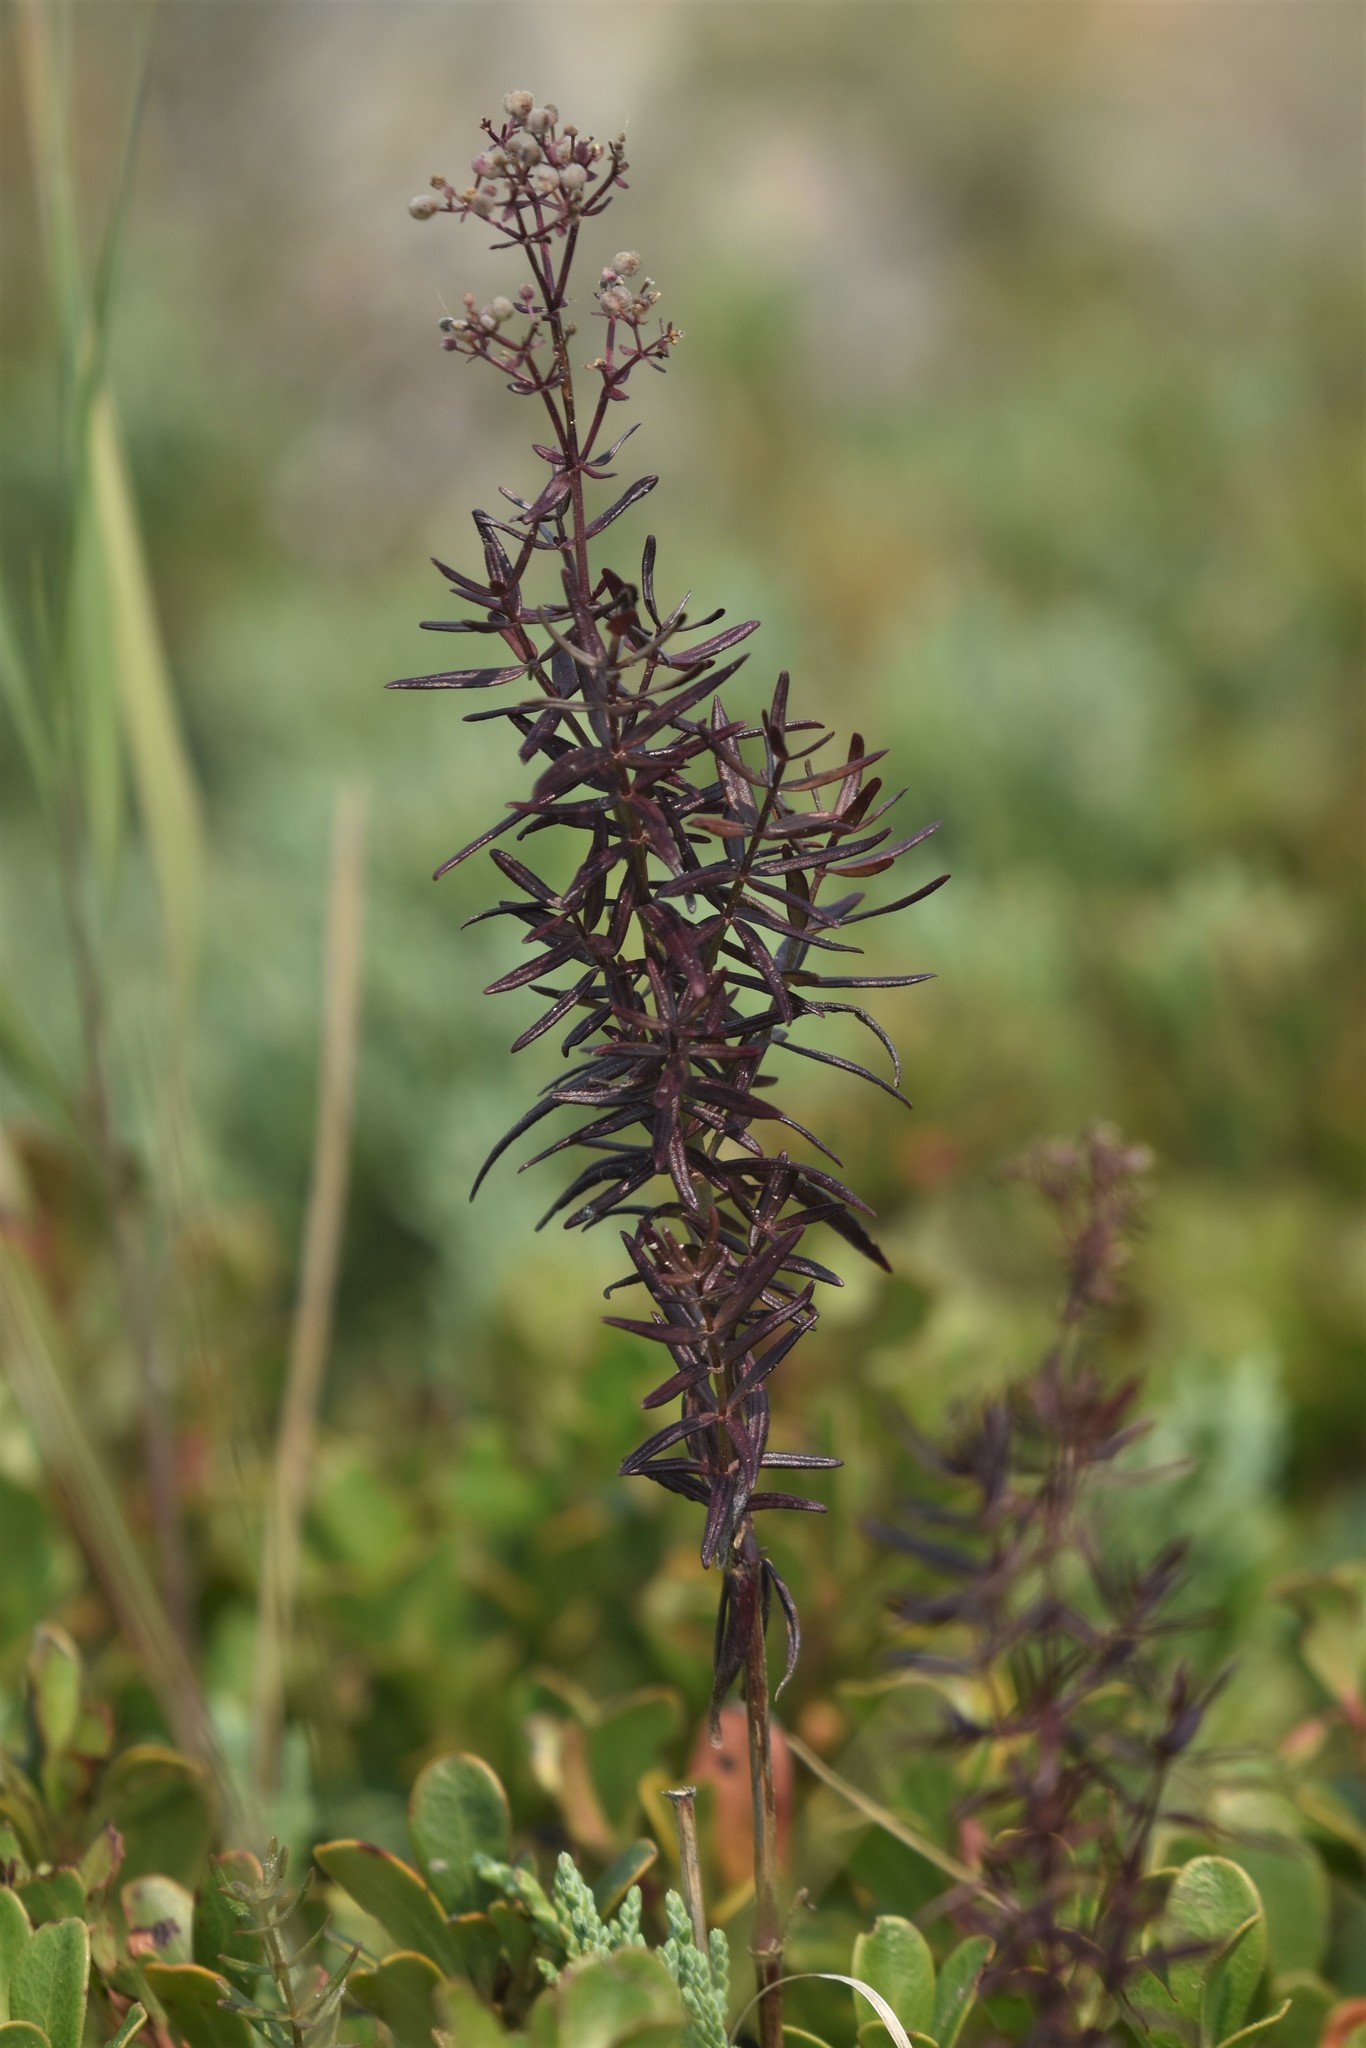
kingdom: Plantae
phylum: Tracheophyta
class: Magnoliopsida
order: Gentianales
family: Rubiaceae
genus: Galium
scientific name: Galium boreale
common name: Northern bedstraw
